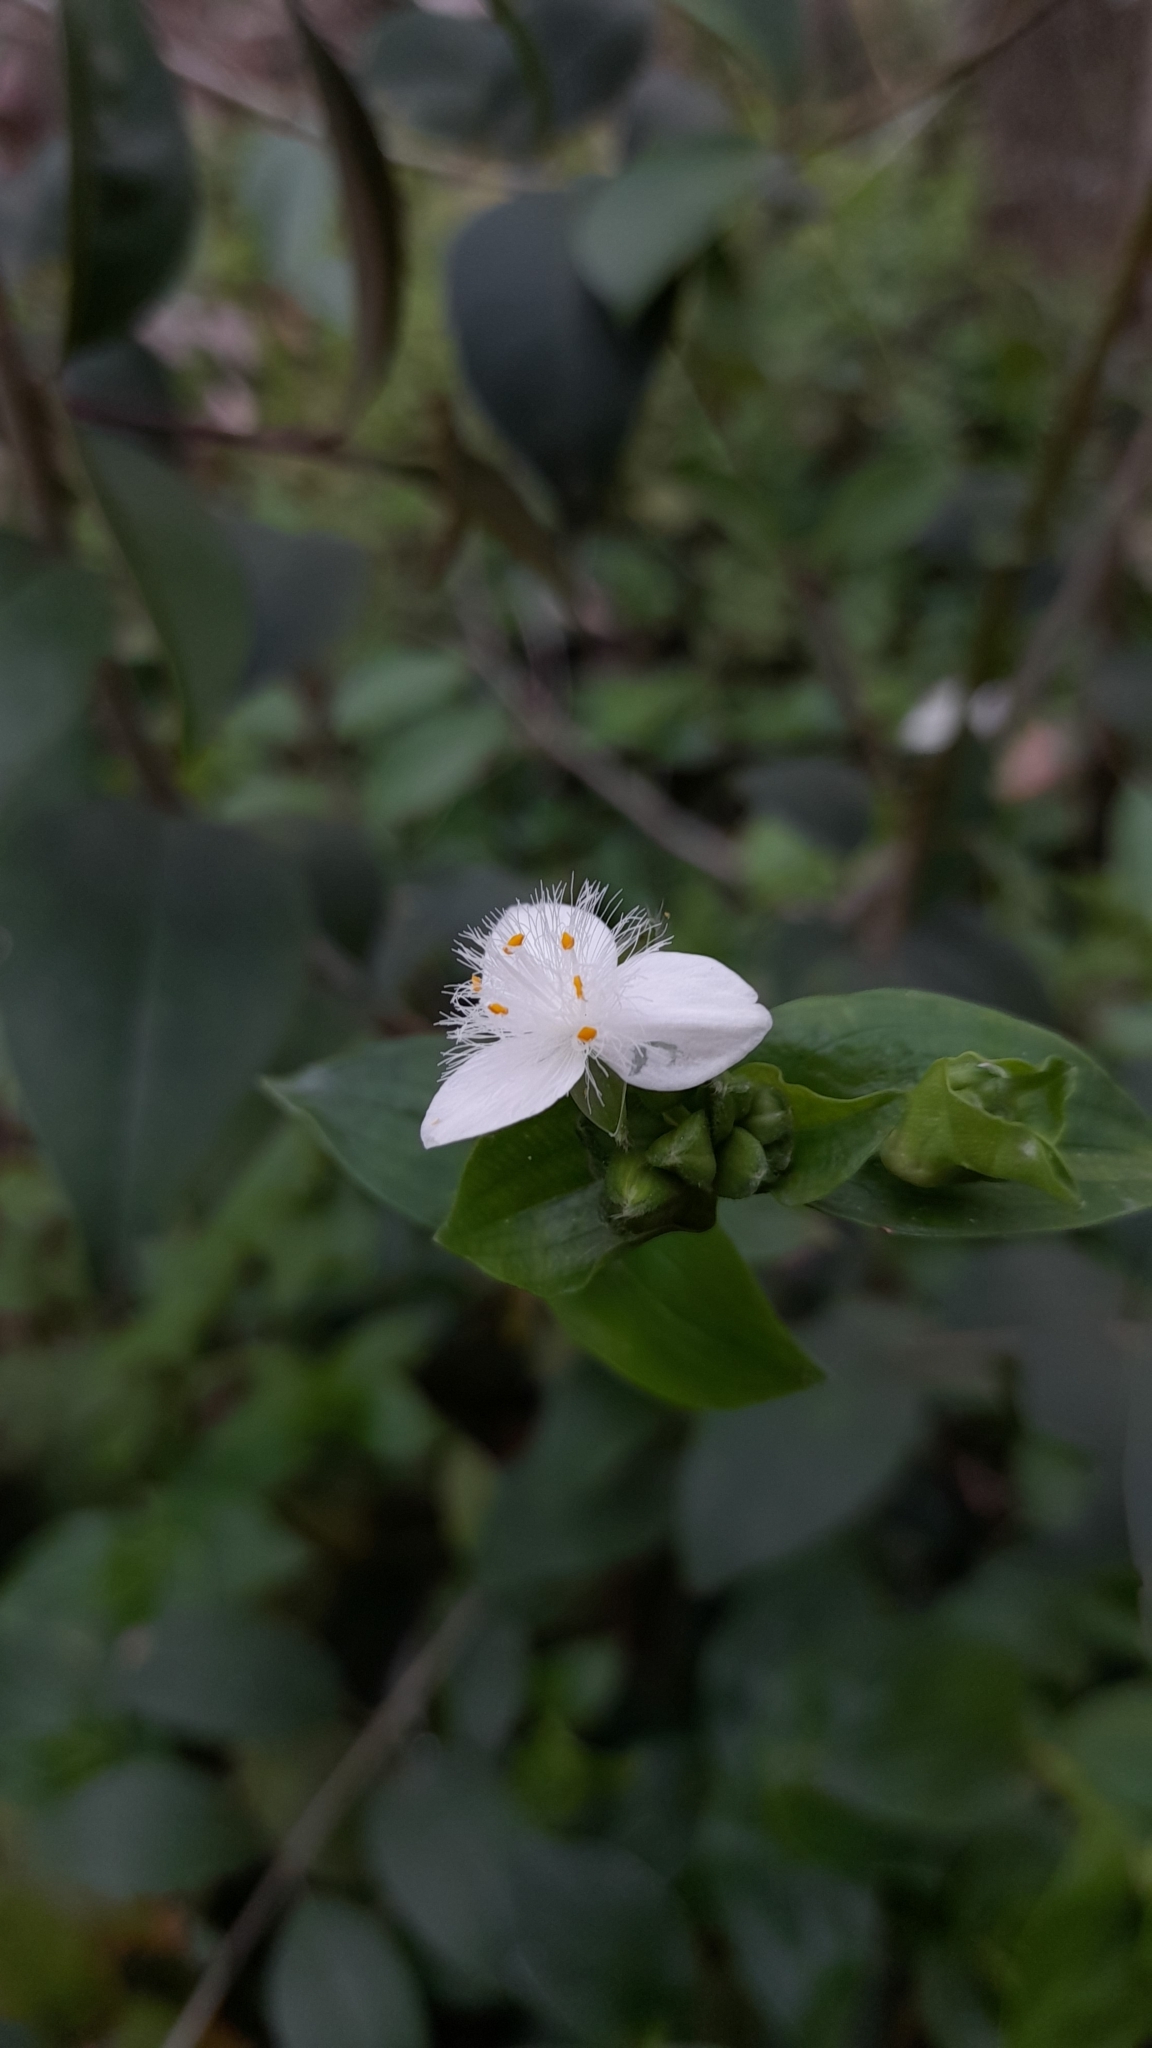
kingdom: Plantae
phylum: Tracheophyta
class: Liliopsida
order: Commelinales
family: Commelinaceae
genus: Tradescantia
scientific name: Tradescantia fluminensis
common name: Wandering-jew
